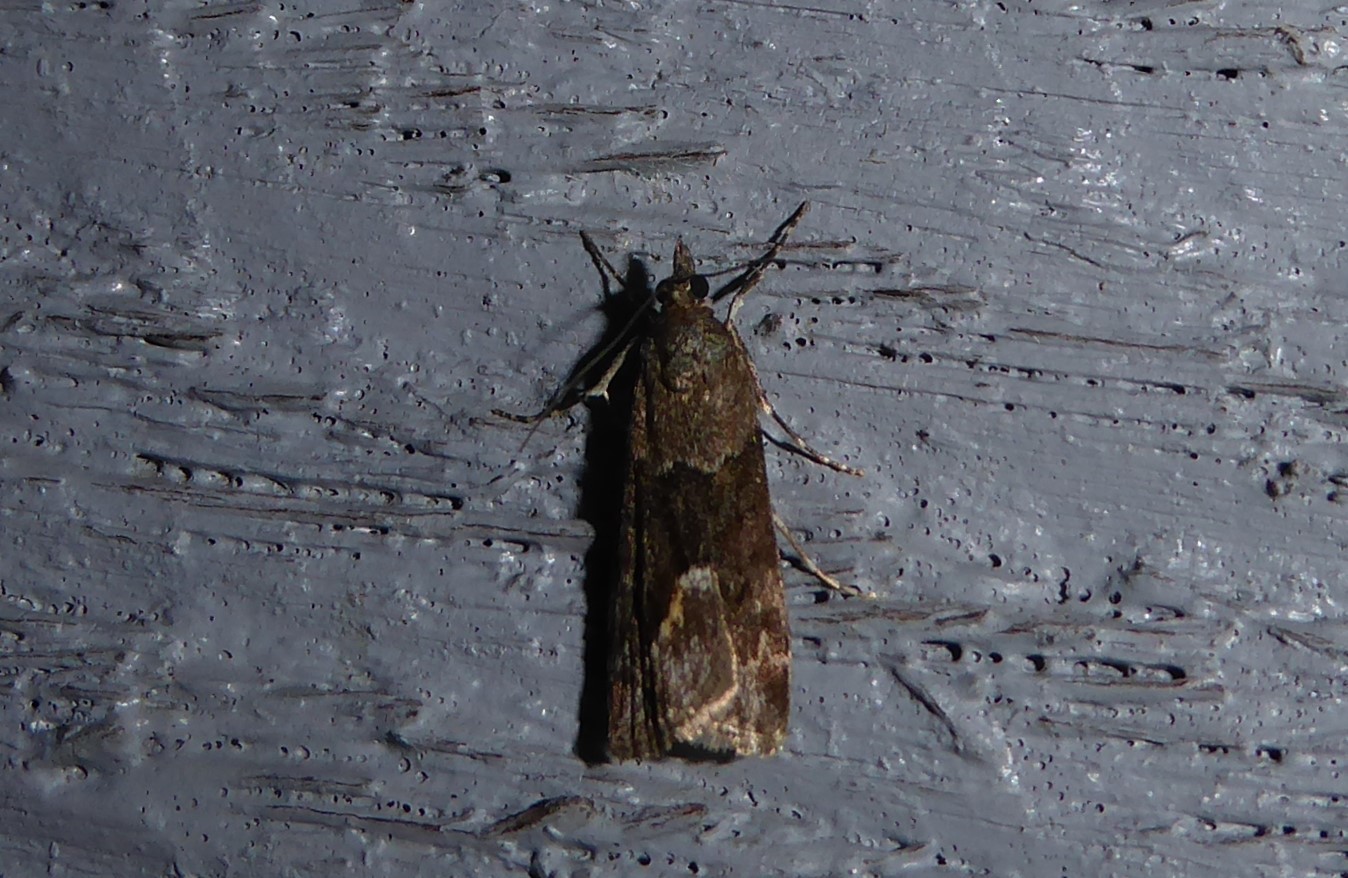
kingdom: Animalia
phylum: Arthropoda
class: Insecta
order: Lepidoptera
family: Crambidae
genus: Eudonia
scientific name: Eudonia submarginalis
